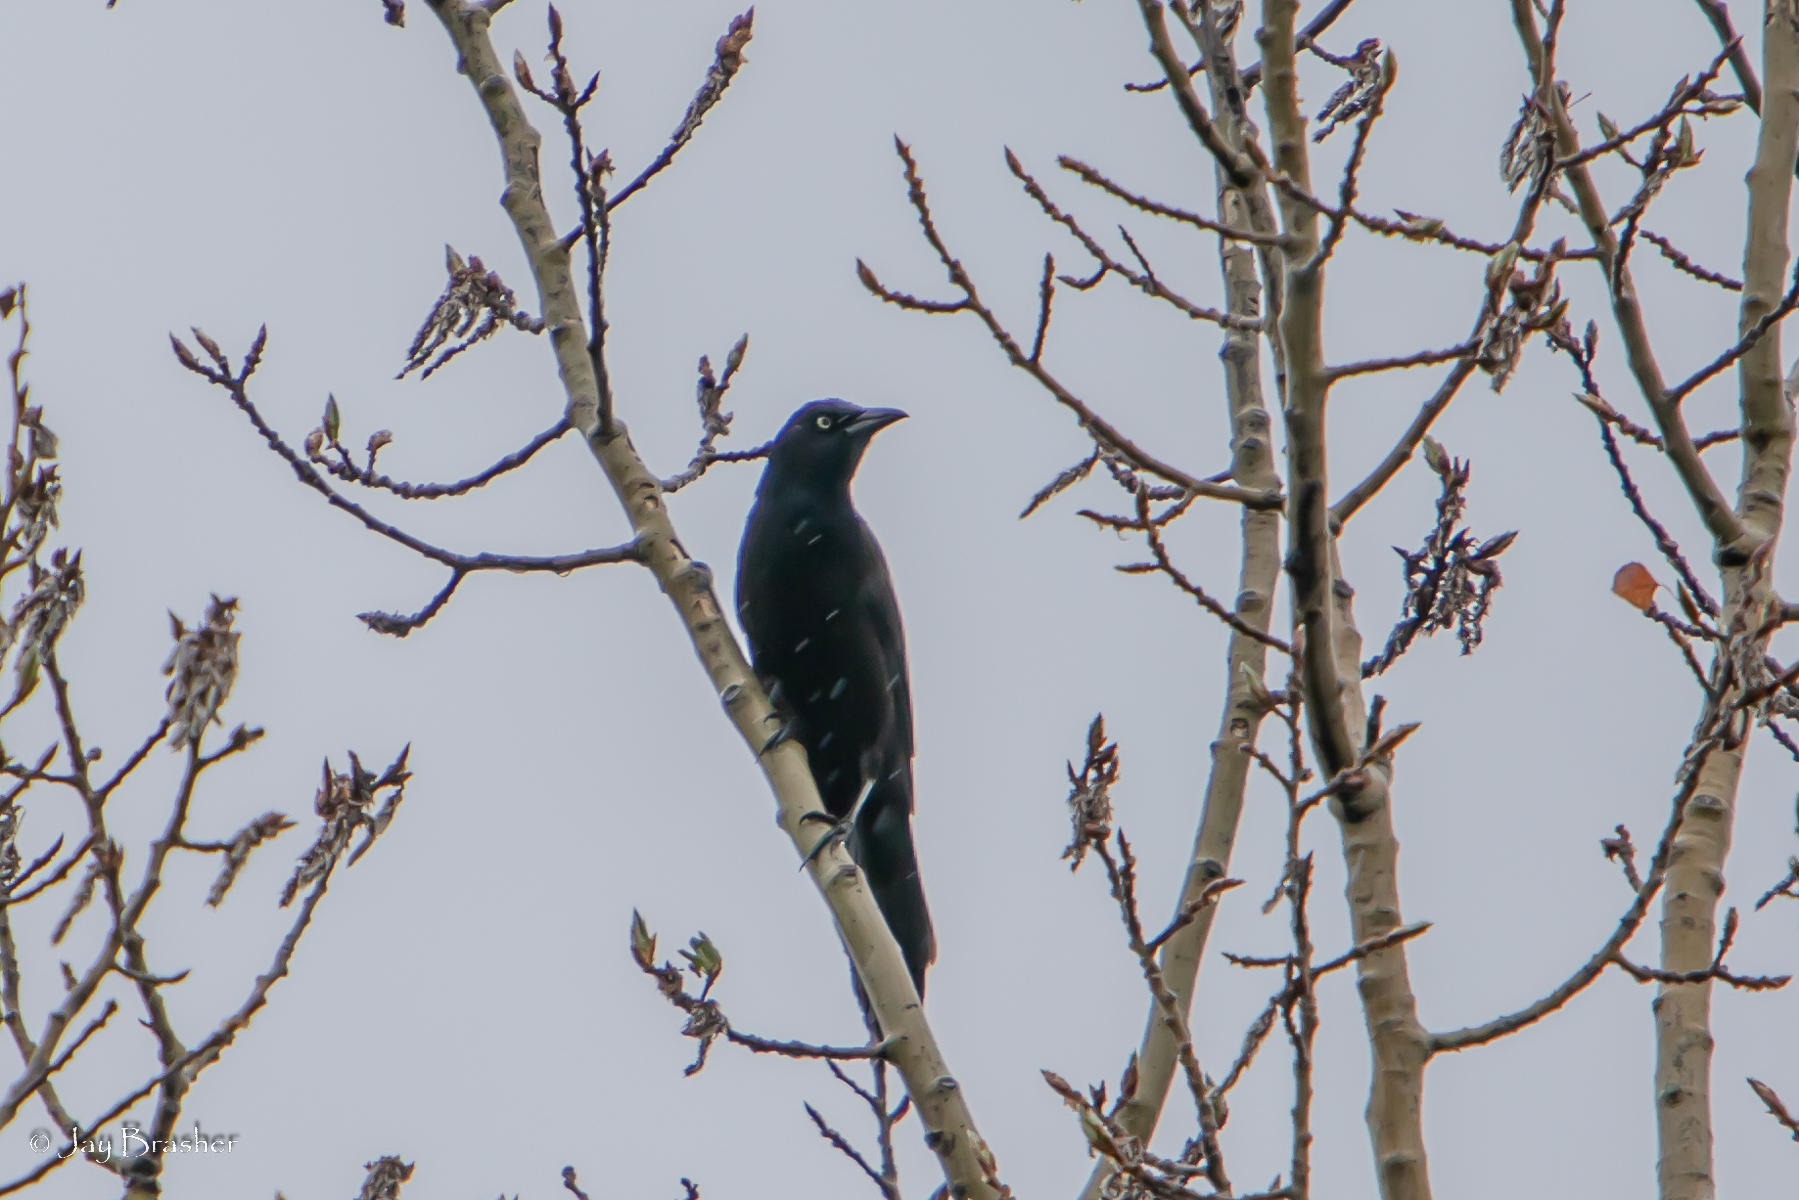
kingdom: Animalia
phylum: Chordata
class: Aves
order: Passeriformes
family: Icteridae
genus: Quiscalus
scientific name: Quiscalus quiscula
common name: Common grackle
